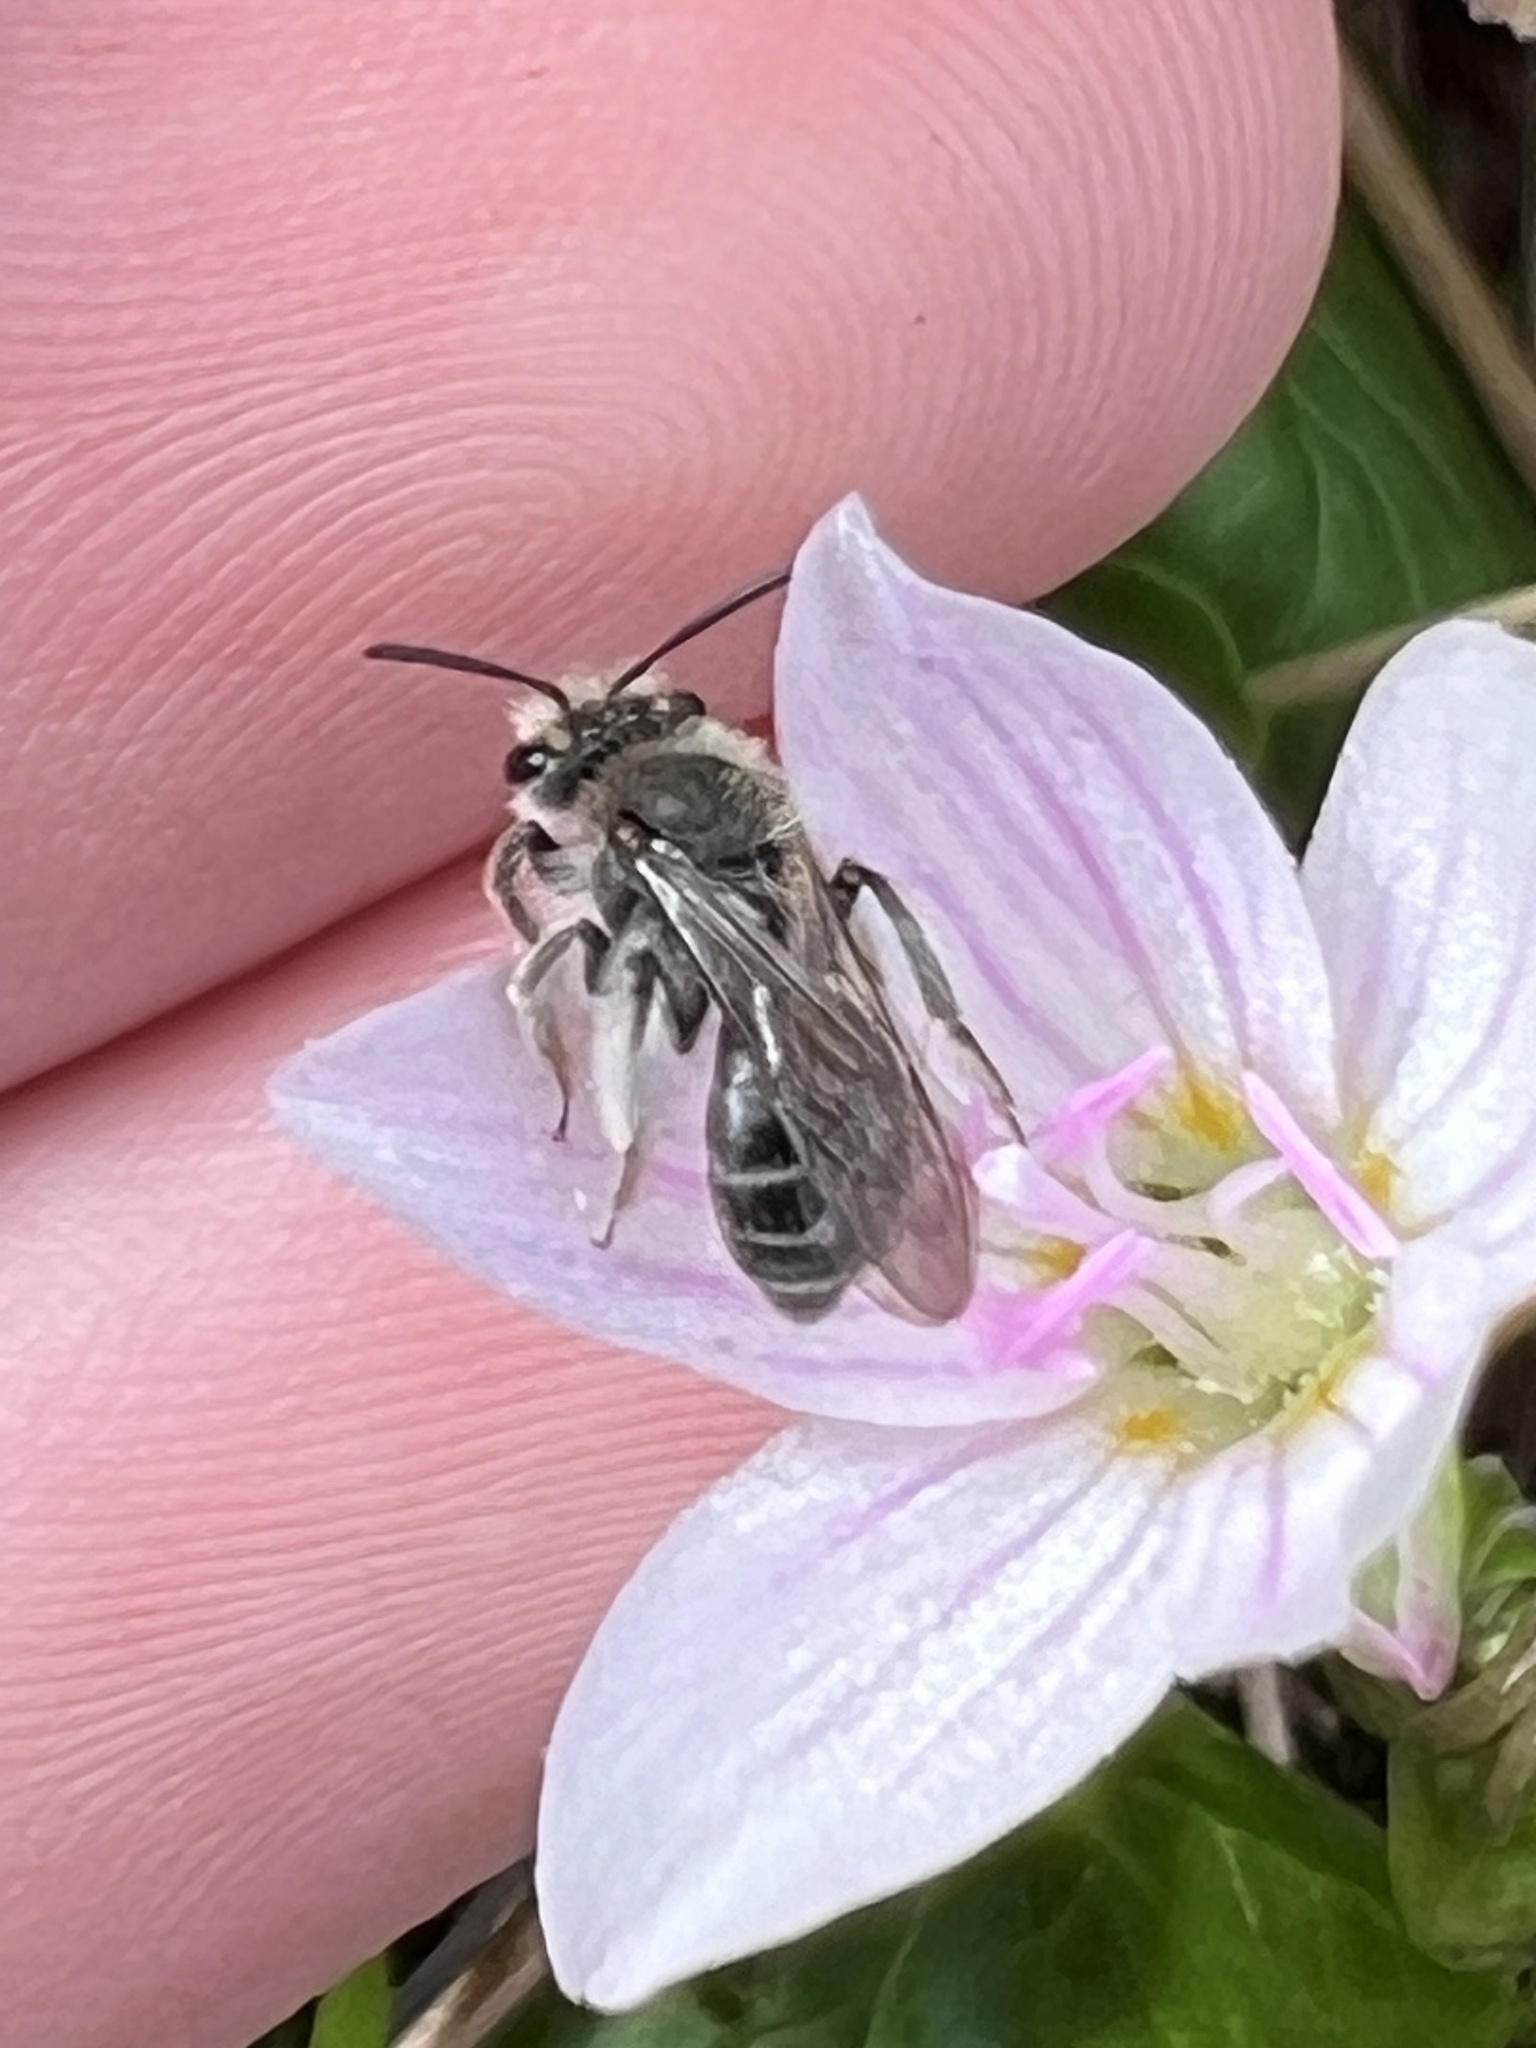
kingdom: Animalia
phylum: Arthropoda
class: Insecta
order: Hymenoptera
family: Andrenidae
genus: Andrena
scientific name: Andrena erigeniae
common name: Spring beauty miner
